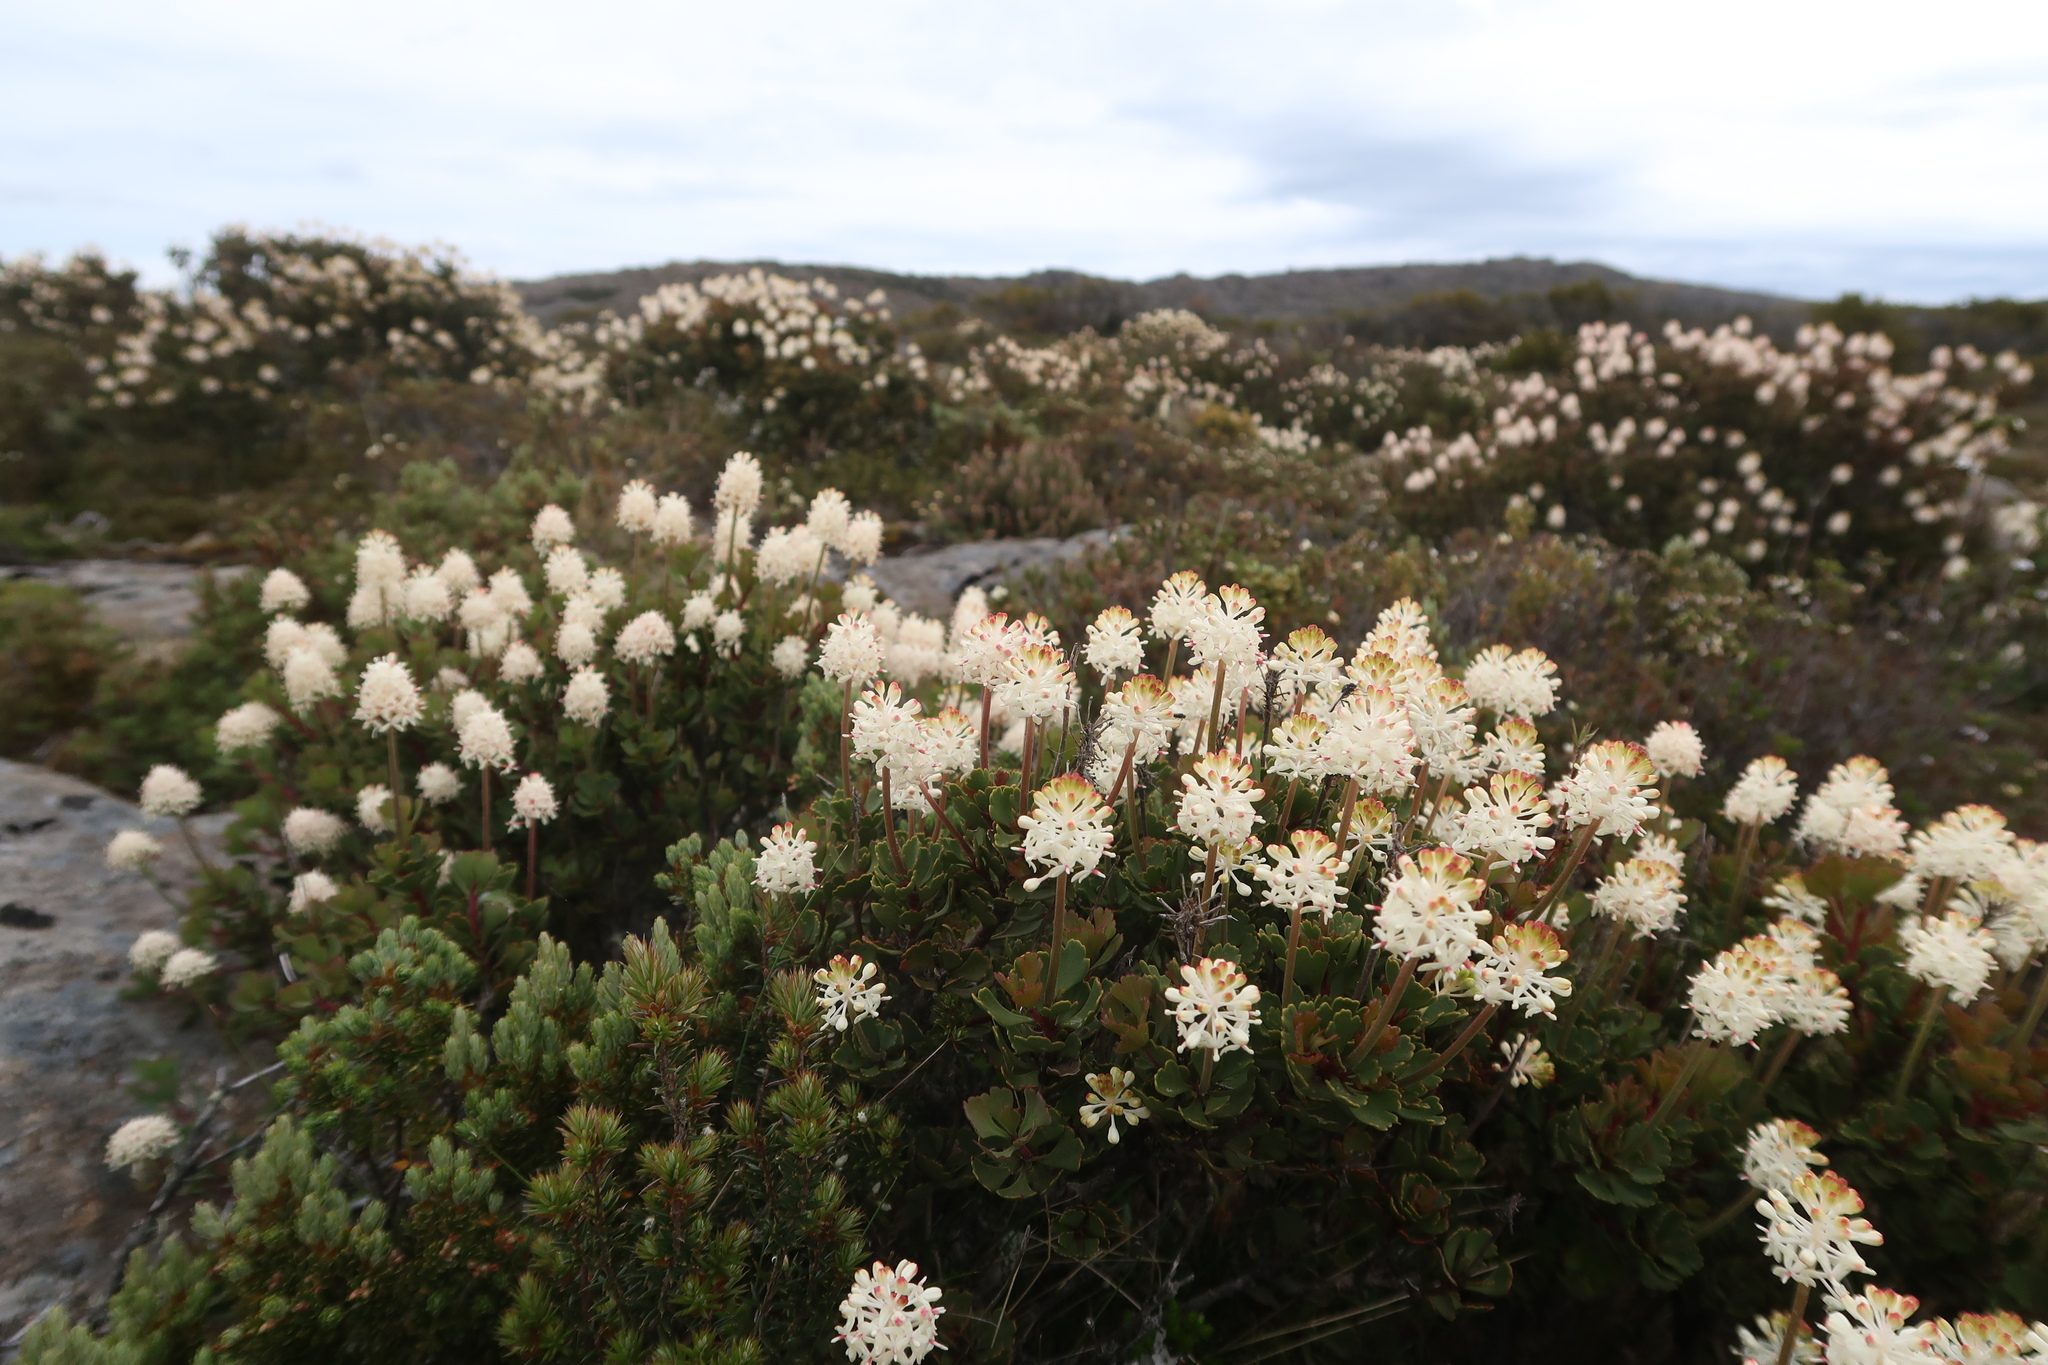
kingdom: Plantae
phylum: Tracheophyta
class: Magnoliopsida
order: Proteales
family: Proteaceae
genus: Bellendena
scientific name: Bellendena montana
